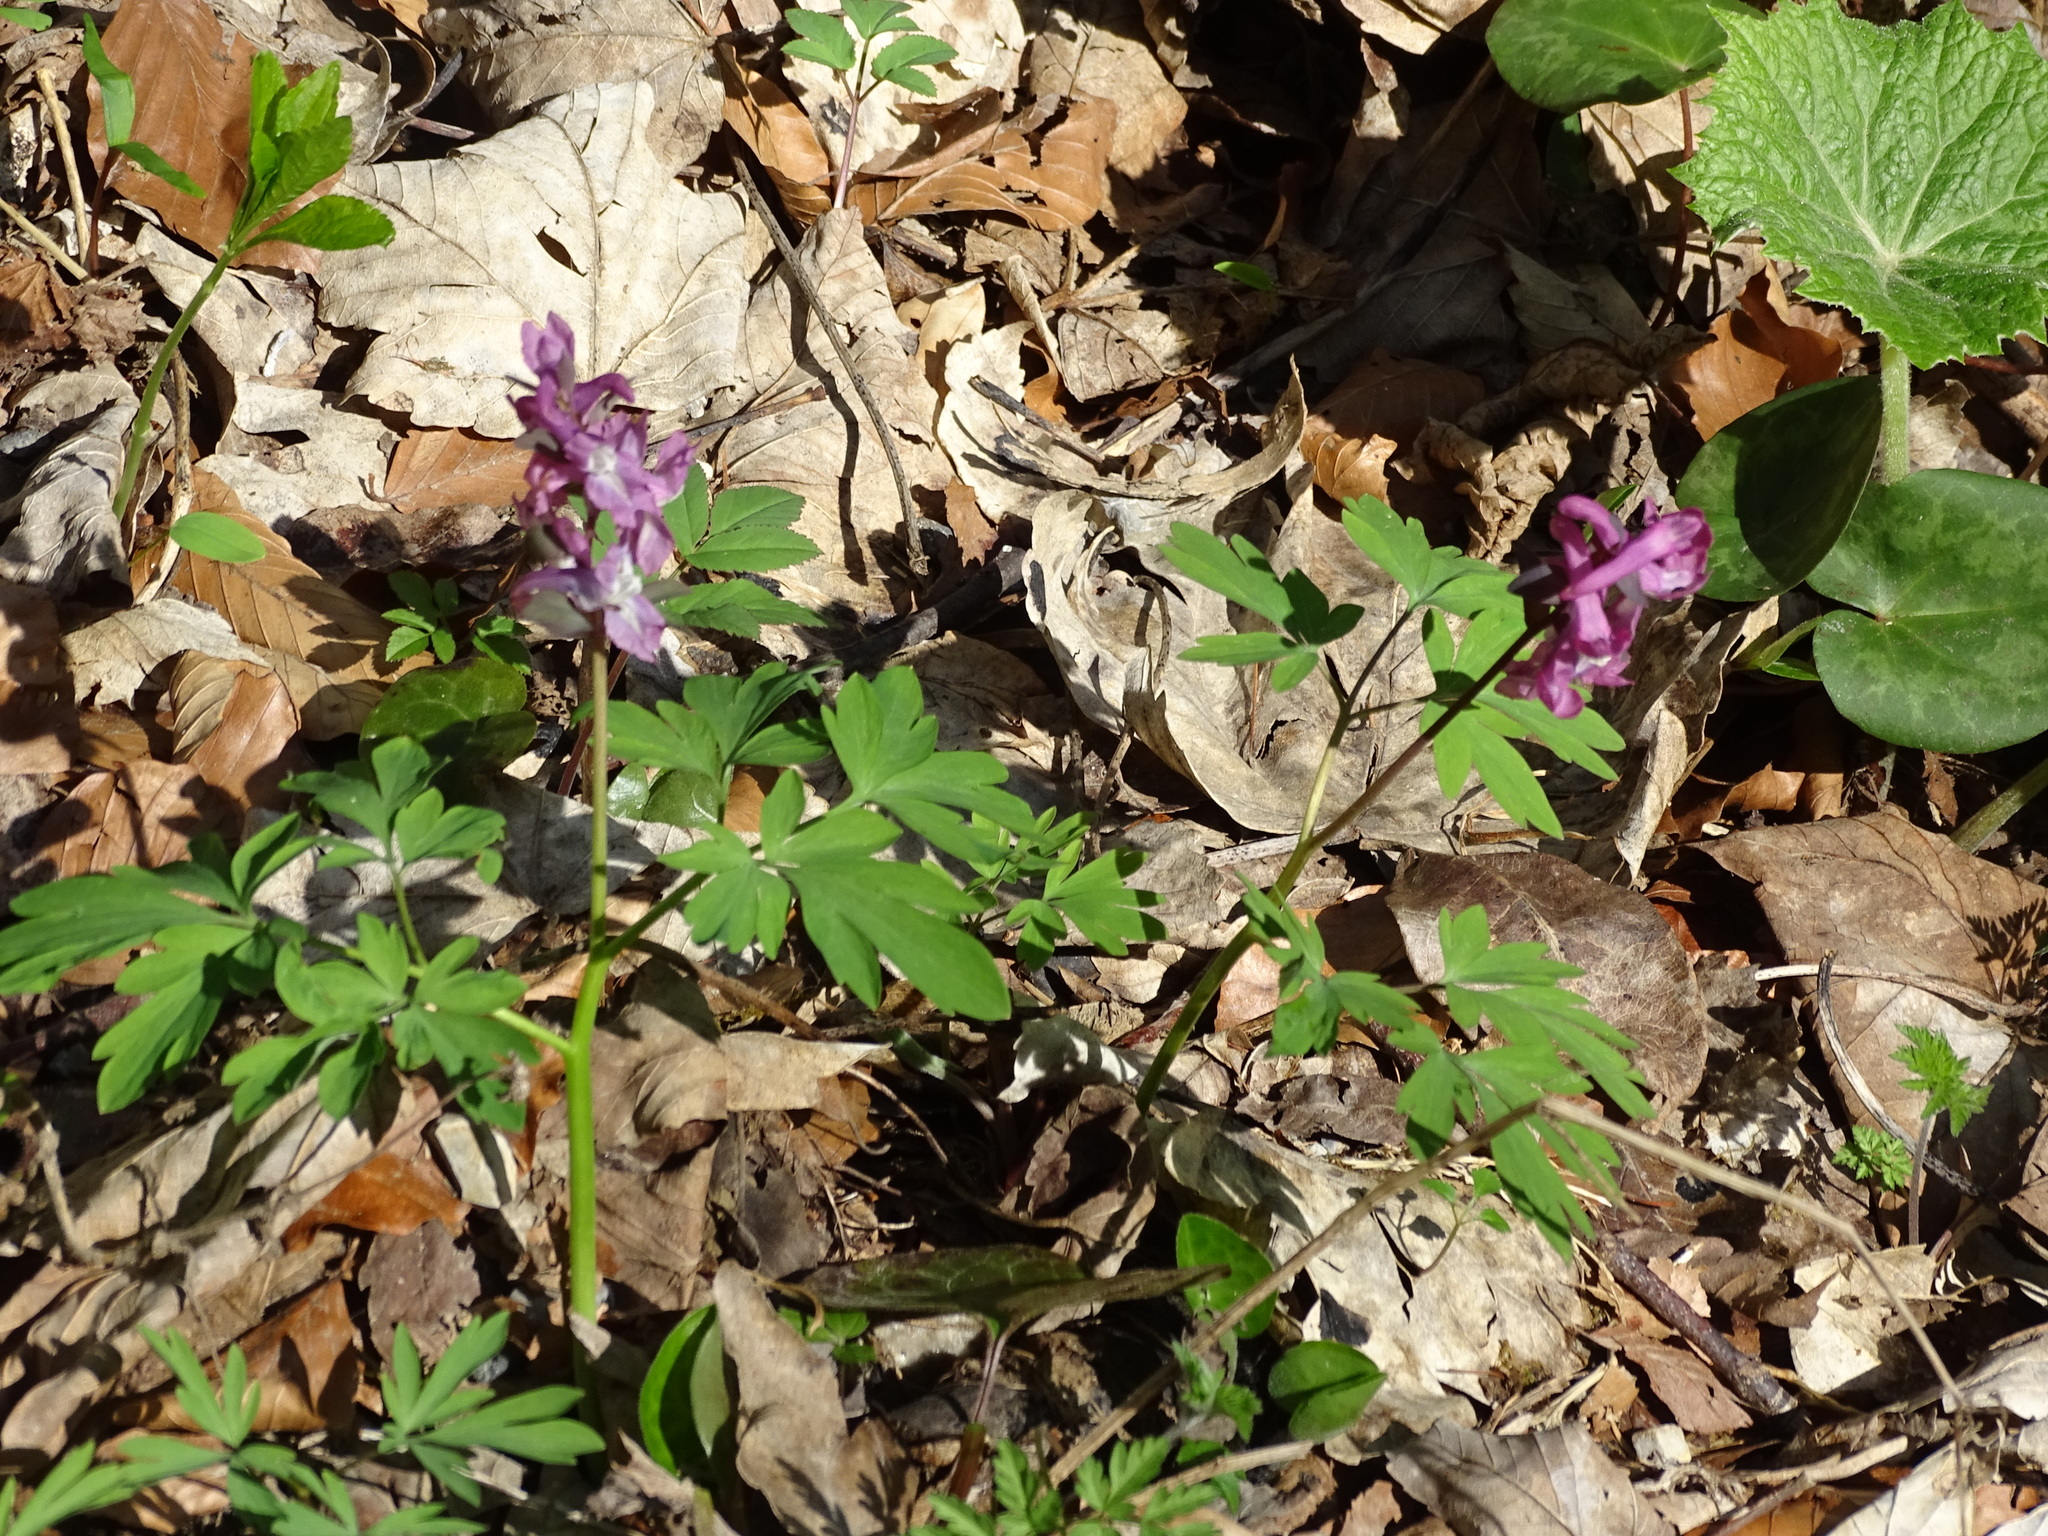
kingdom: Plantae
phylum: Tracheophyta
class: Magnoliopsida
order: Ranunculales
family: Papaveraceae
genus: Corydalis
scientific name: Corydalis cava
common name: Hollowroot
